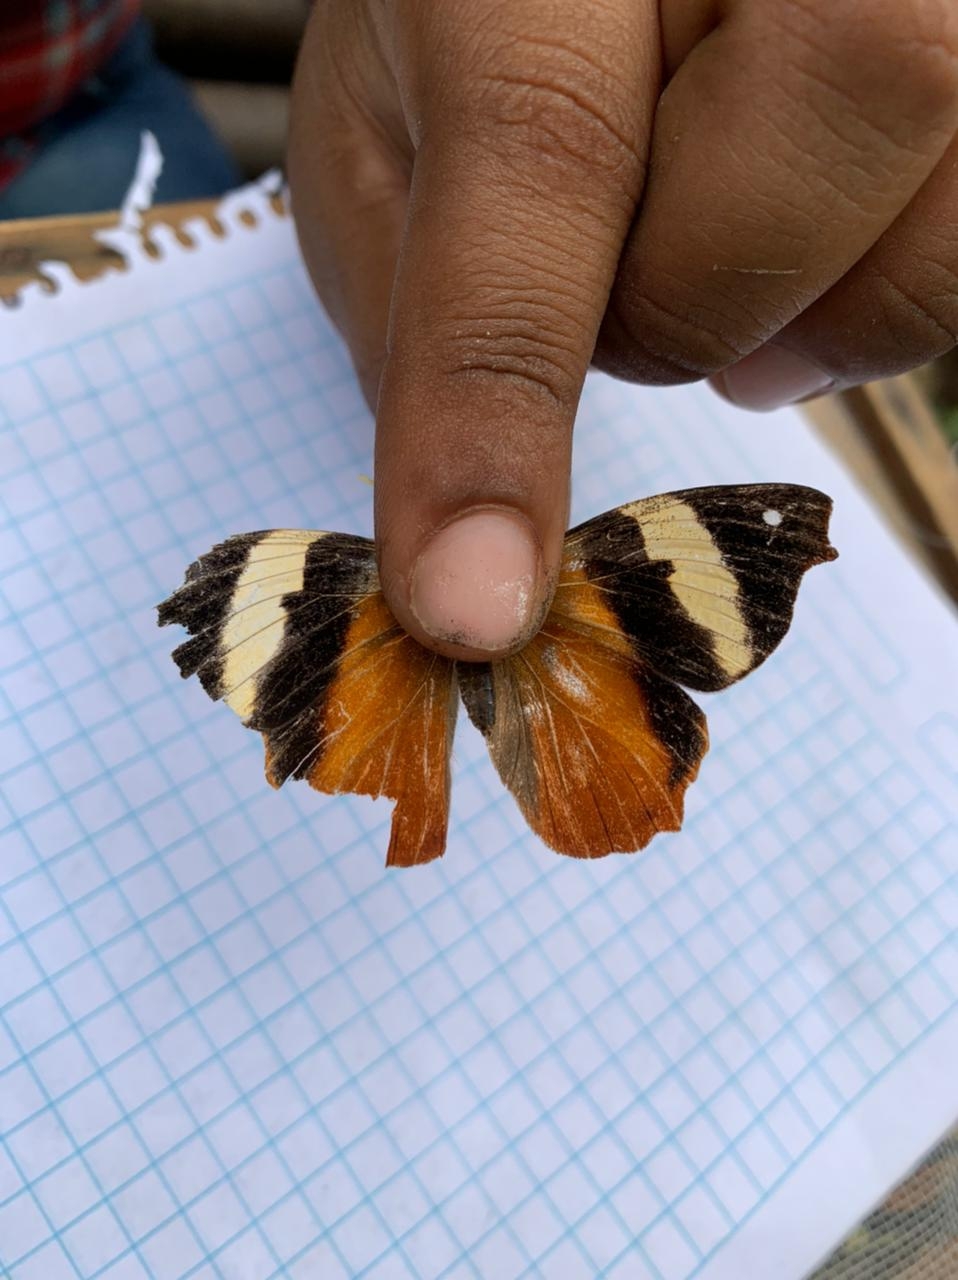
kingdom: Animalia
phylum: Arthropoda
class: Insecta
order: Lepidoptera
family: Nymphalidae
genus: Epiphile
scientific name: Epiphile adrasta
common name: Common banner
